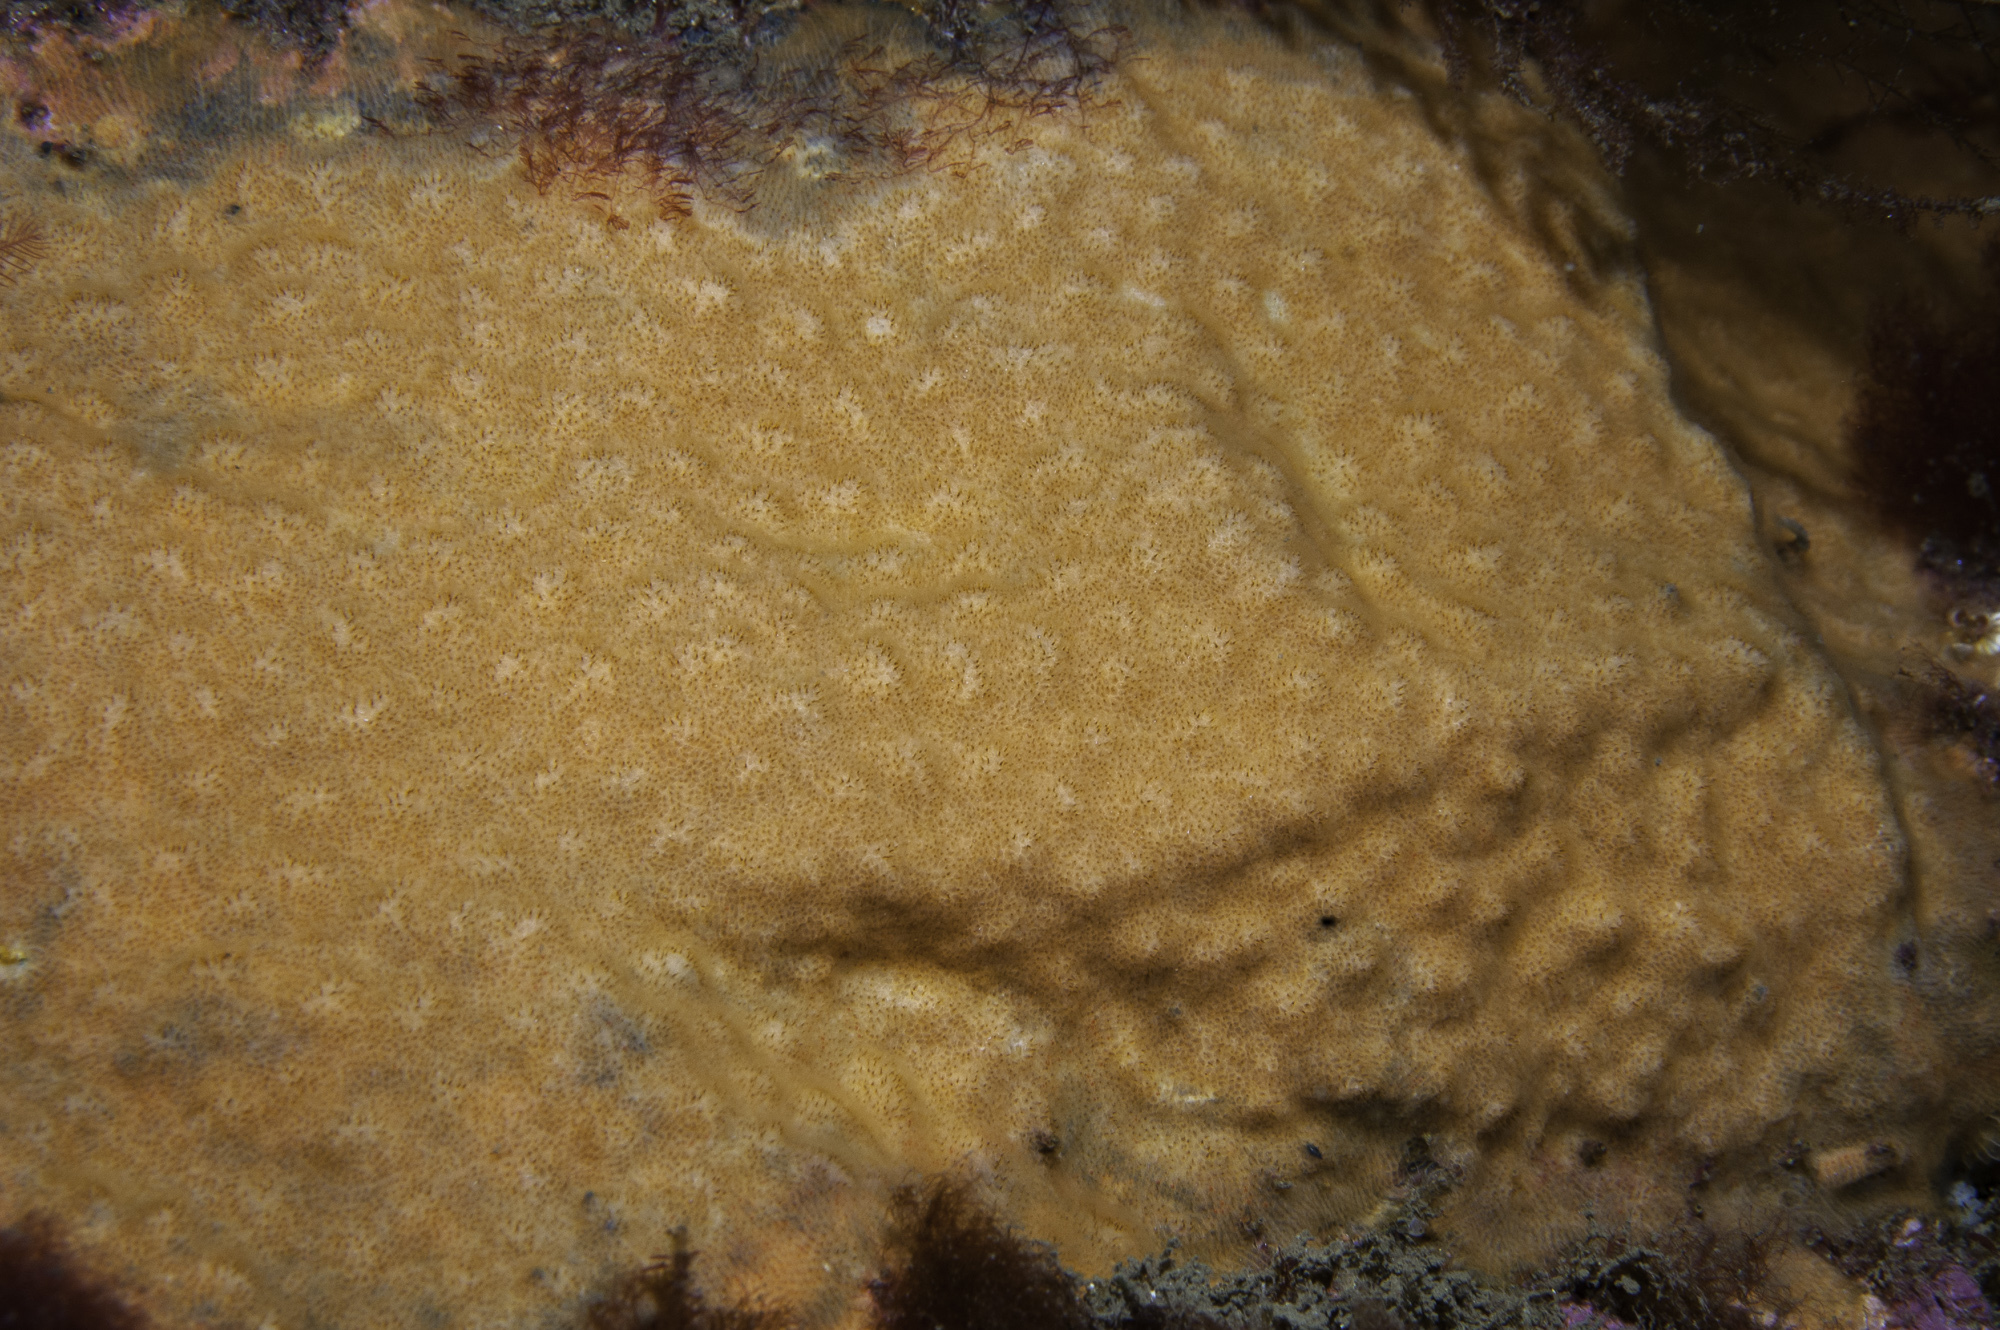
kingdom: Animalia
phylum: Bryozoa
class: Gymnolaemata
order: Cheilostomatida
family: Smittinidae
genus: Parasmittina
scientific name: Parasmittina trispinosa
